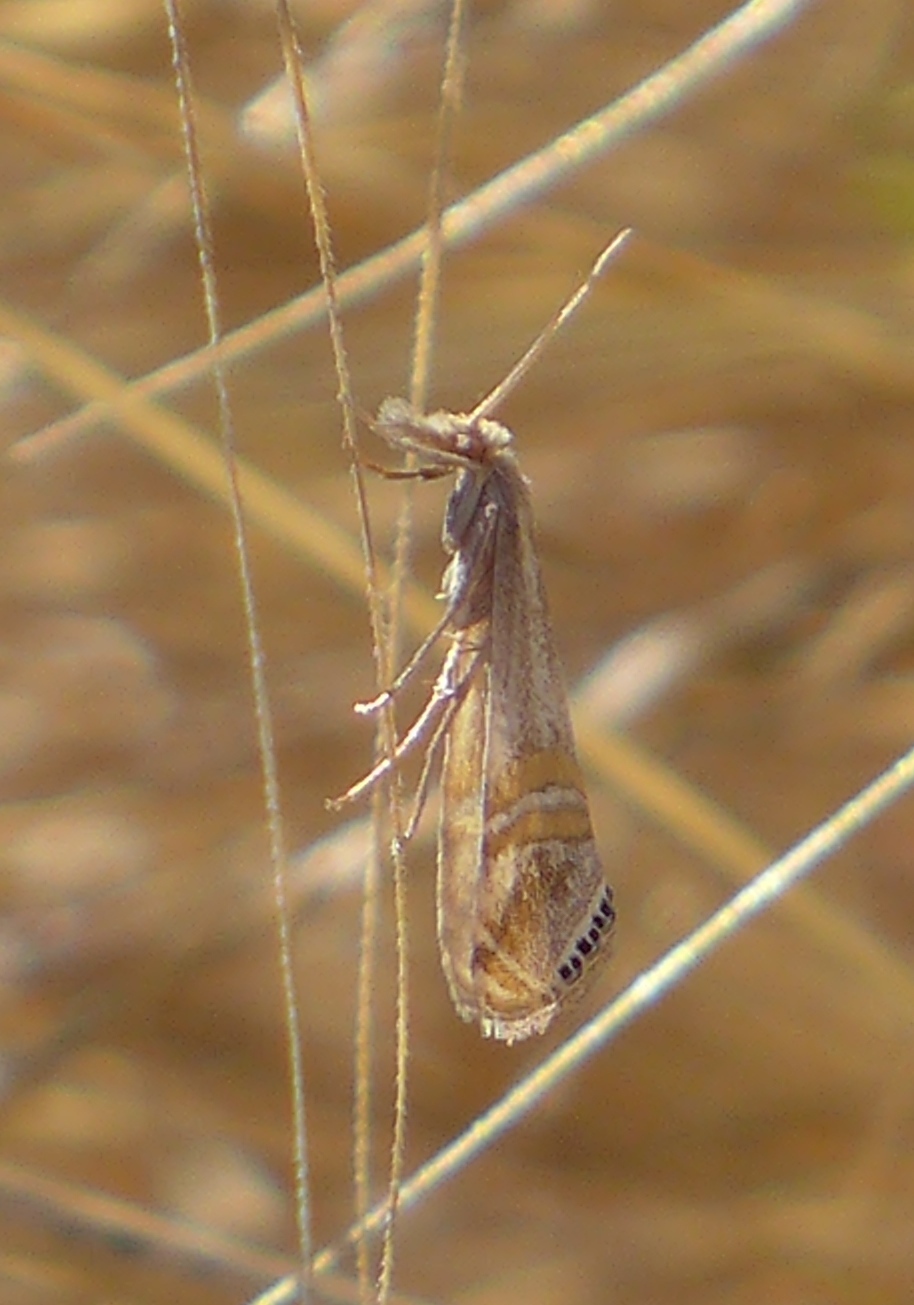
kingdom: Animalia
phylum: Arthropoda
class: Insecta
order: Lepidoptera
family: Crambidae
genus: Euchromius
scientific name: Euchromius ocellea
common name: Necklace veneer moth
